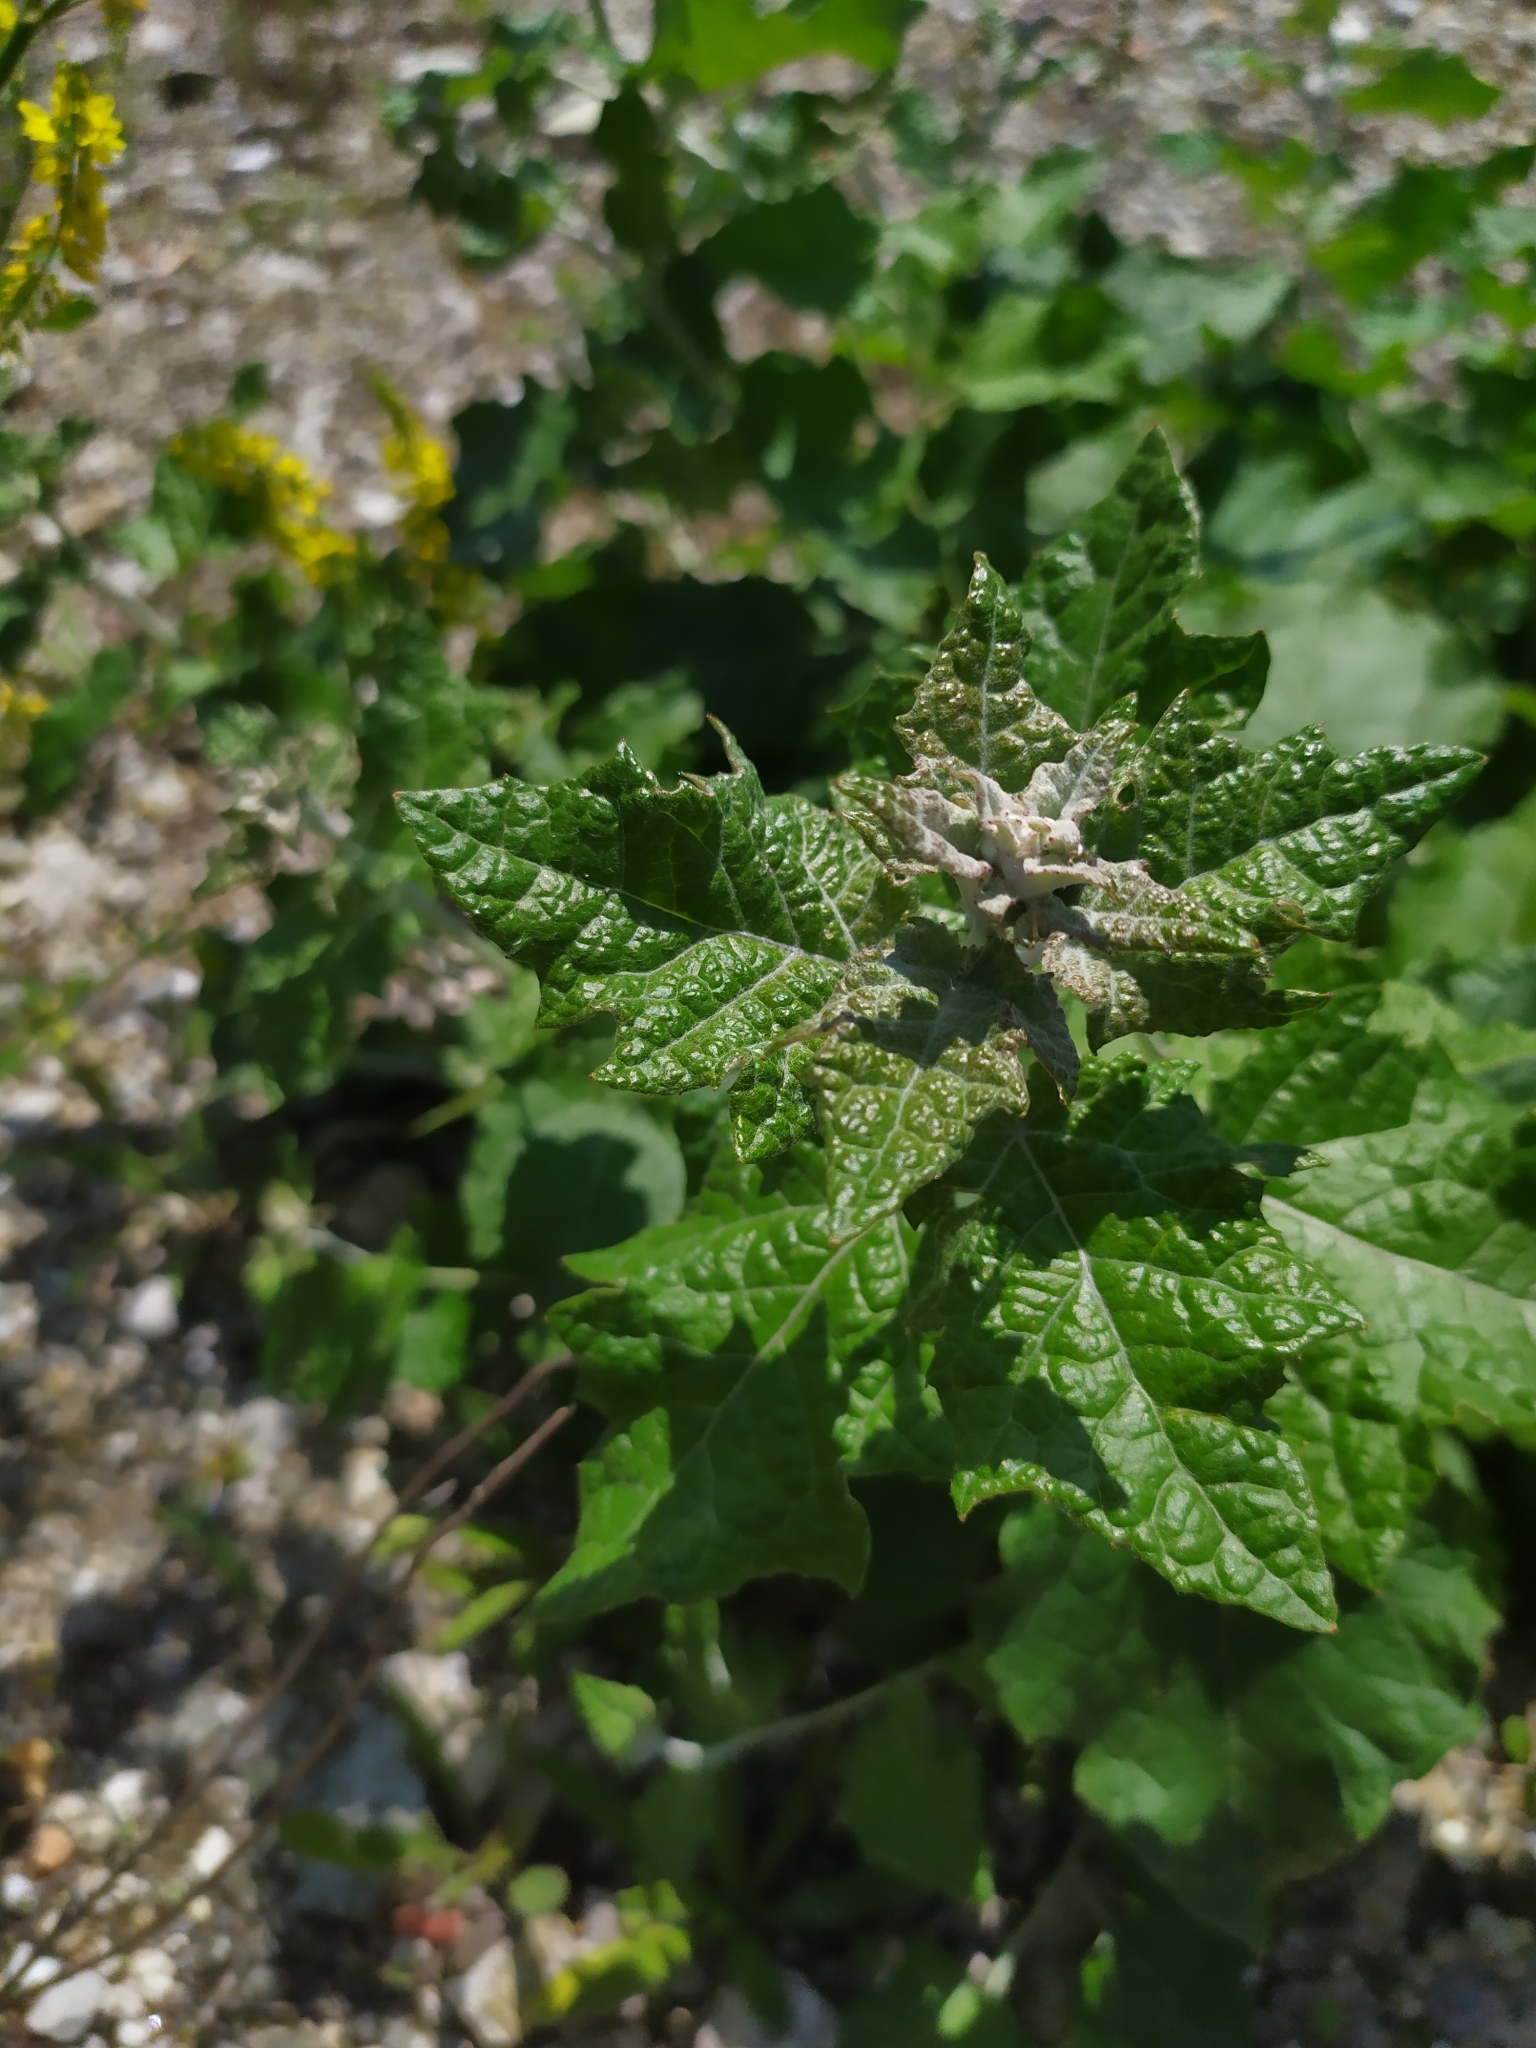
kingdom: Plantae
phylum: Tracheophyta
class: Magnoliopsida
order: Malpighiales
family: Salicaceae
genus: Populus
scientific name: Populus alba
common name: White poplar
